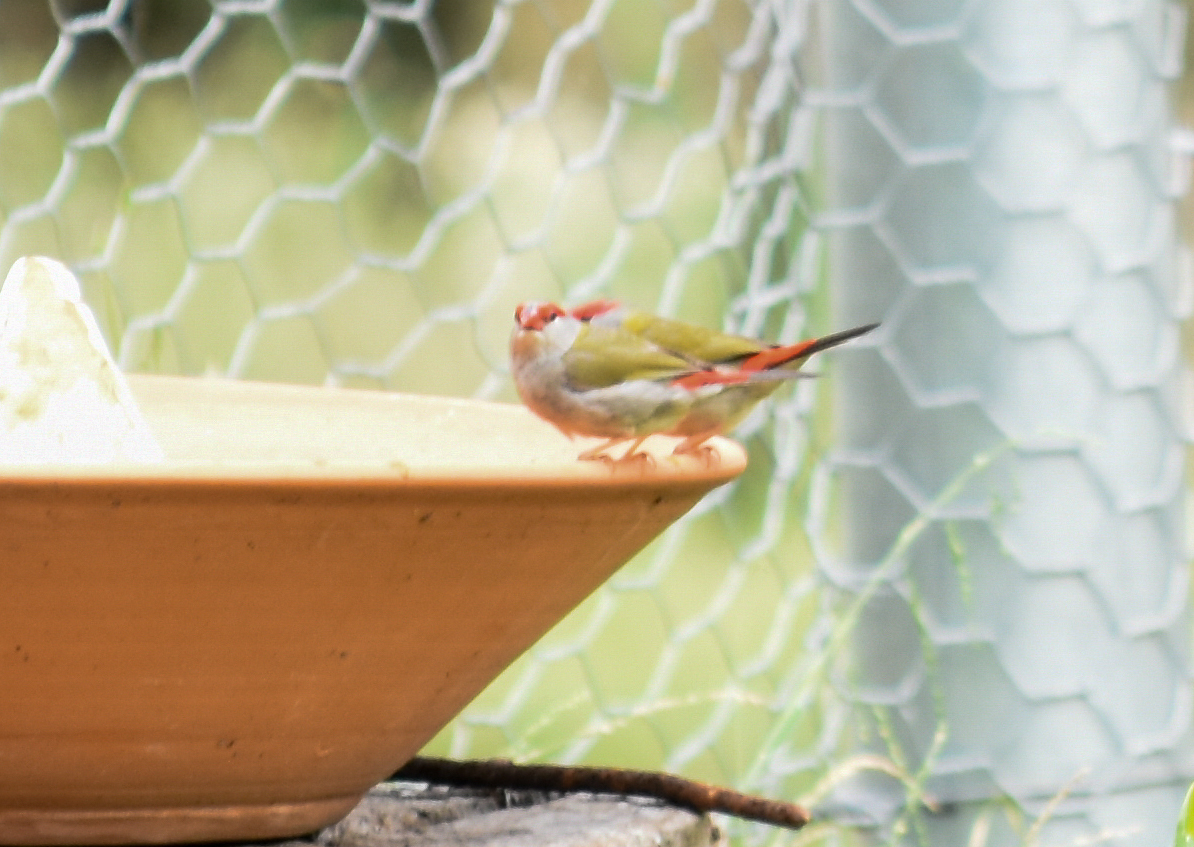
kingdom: Animalia
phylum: Chordata
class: Aves
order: Passeriformes
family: Estrildidae
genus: Neochmia
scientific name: Neochmia temporalis
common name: Red-browed finch
